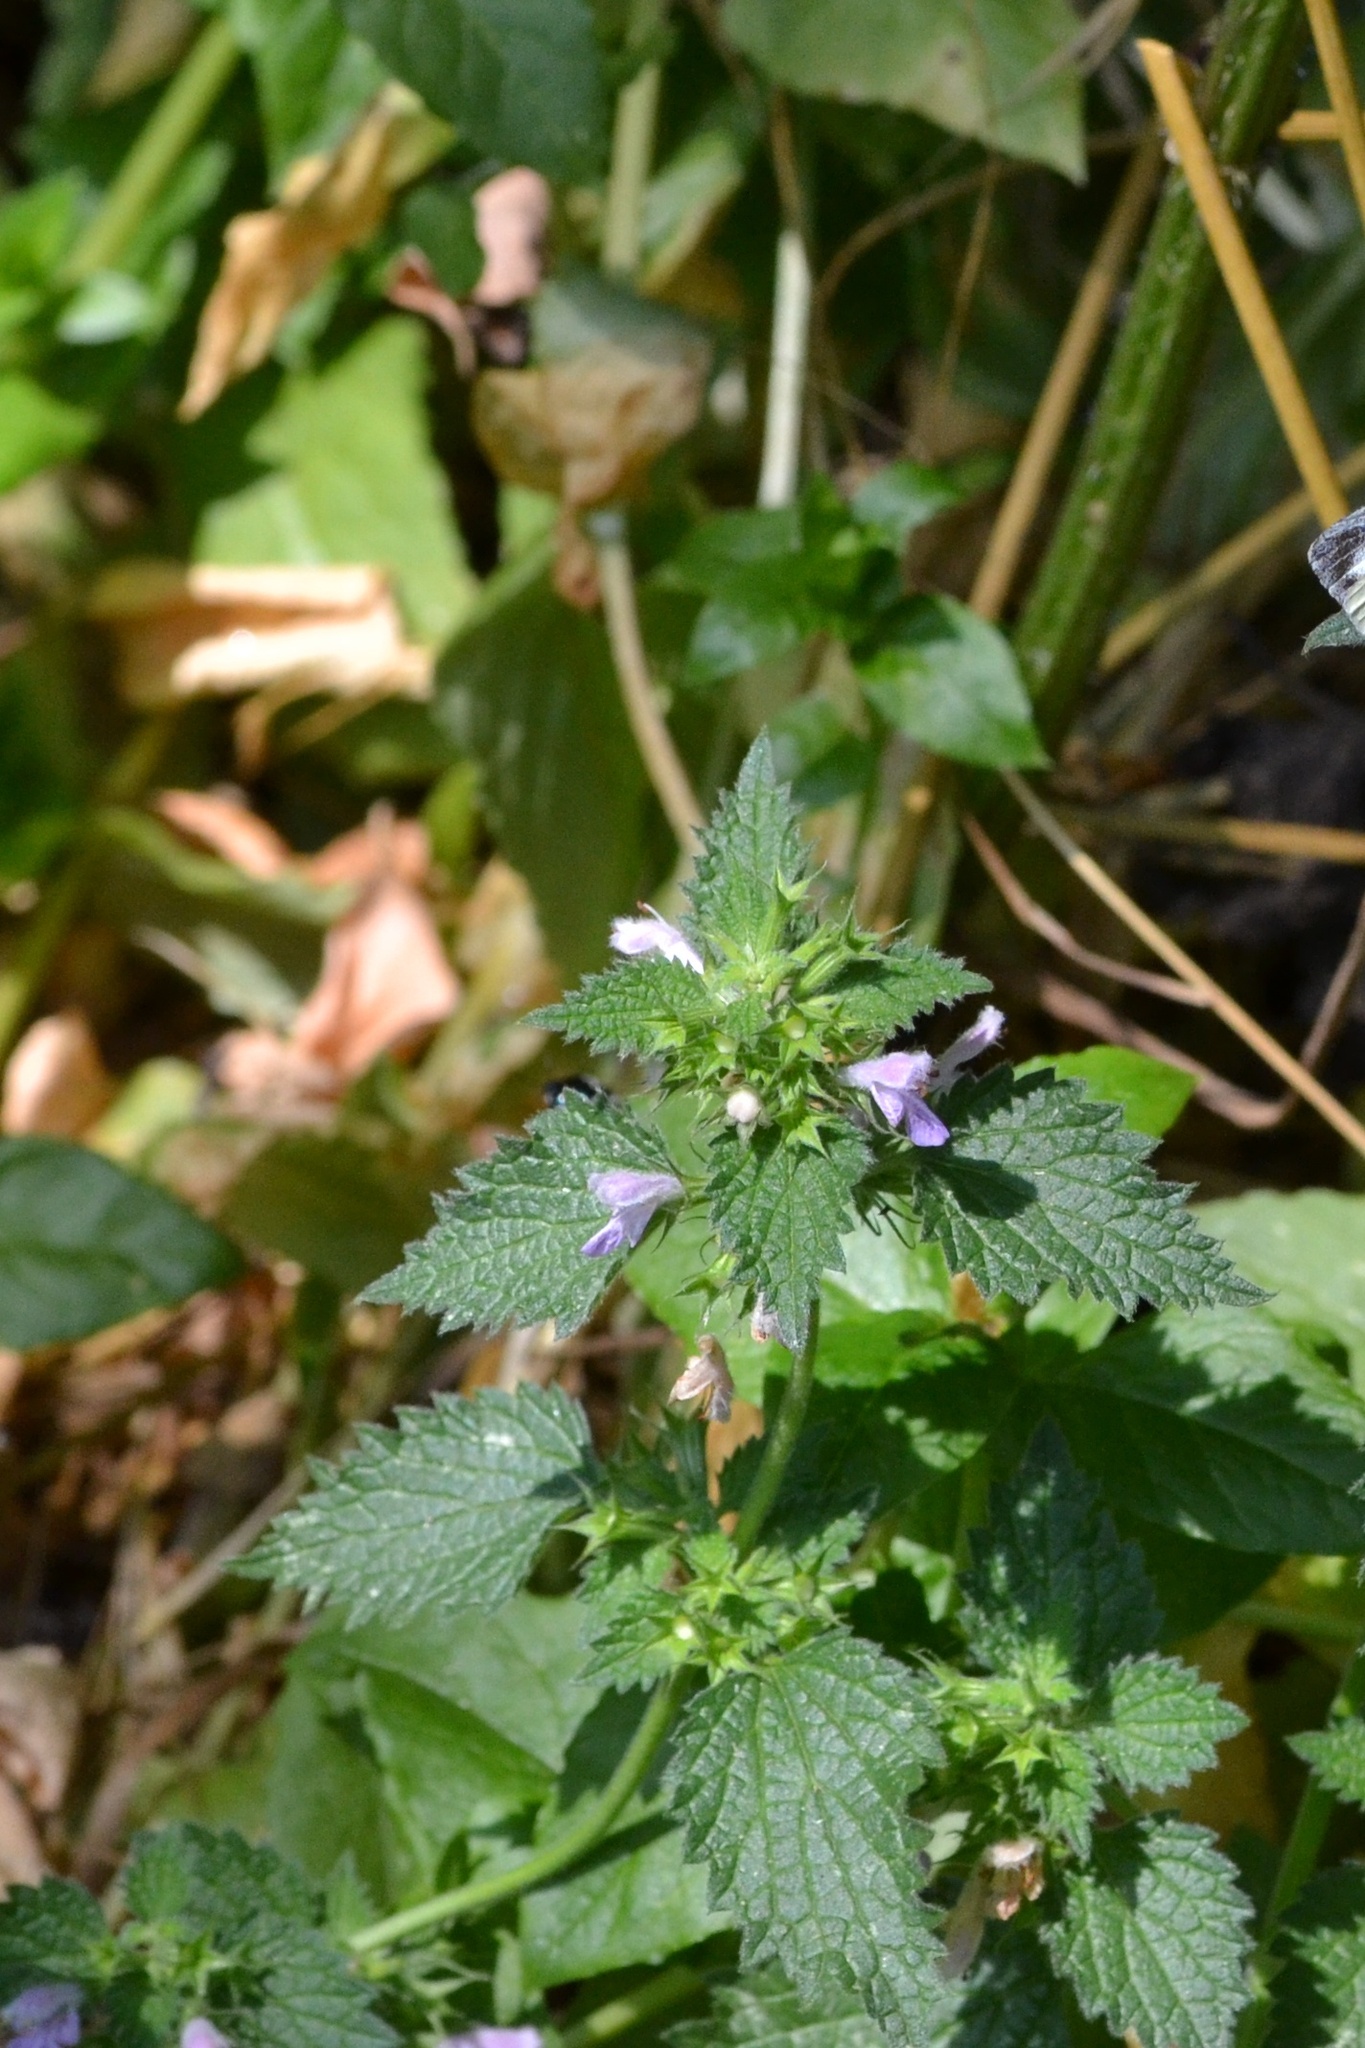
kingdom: Plantae
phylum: Tracheophyta
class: Magnoliopsida
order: Lamiales
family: Lamiaceae
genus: Ballota
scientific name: Ballota nigra
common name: Black horehound
